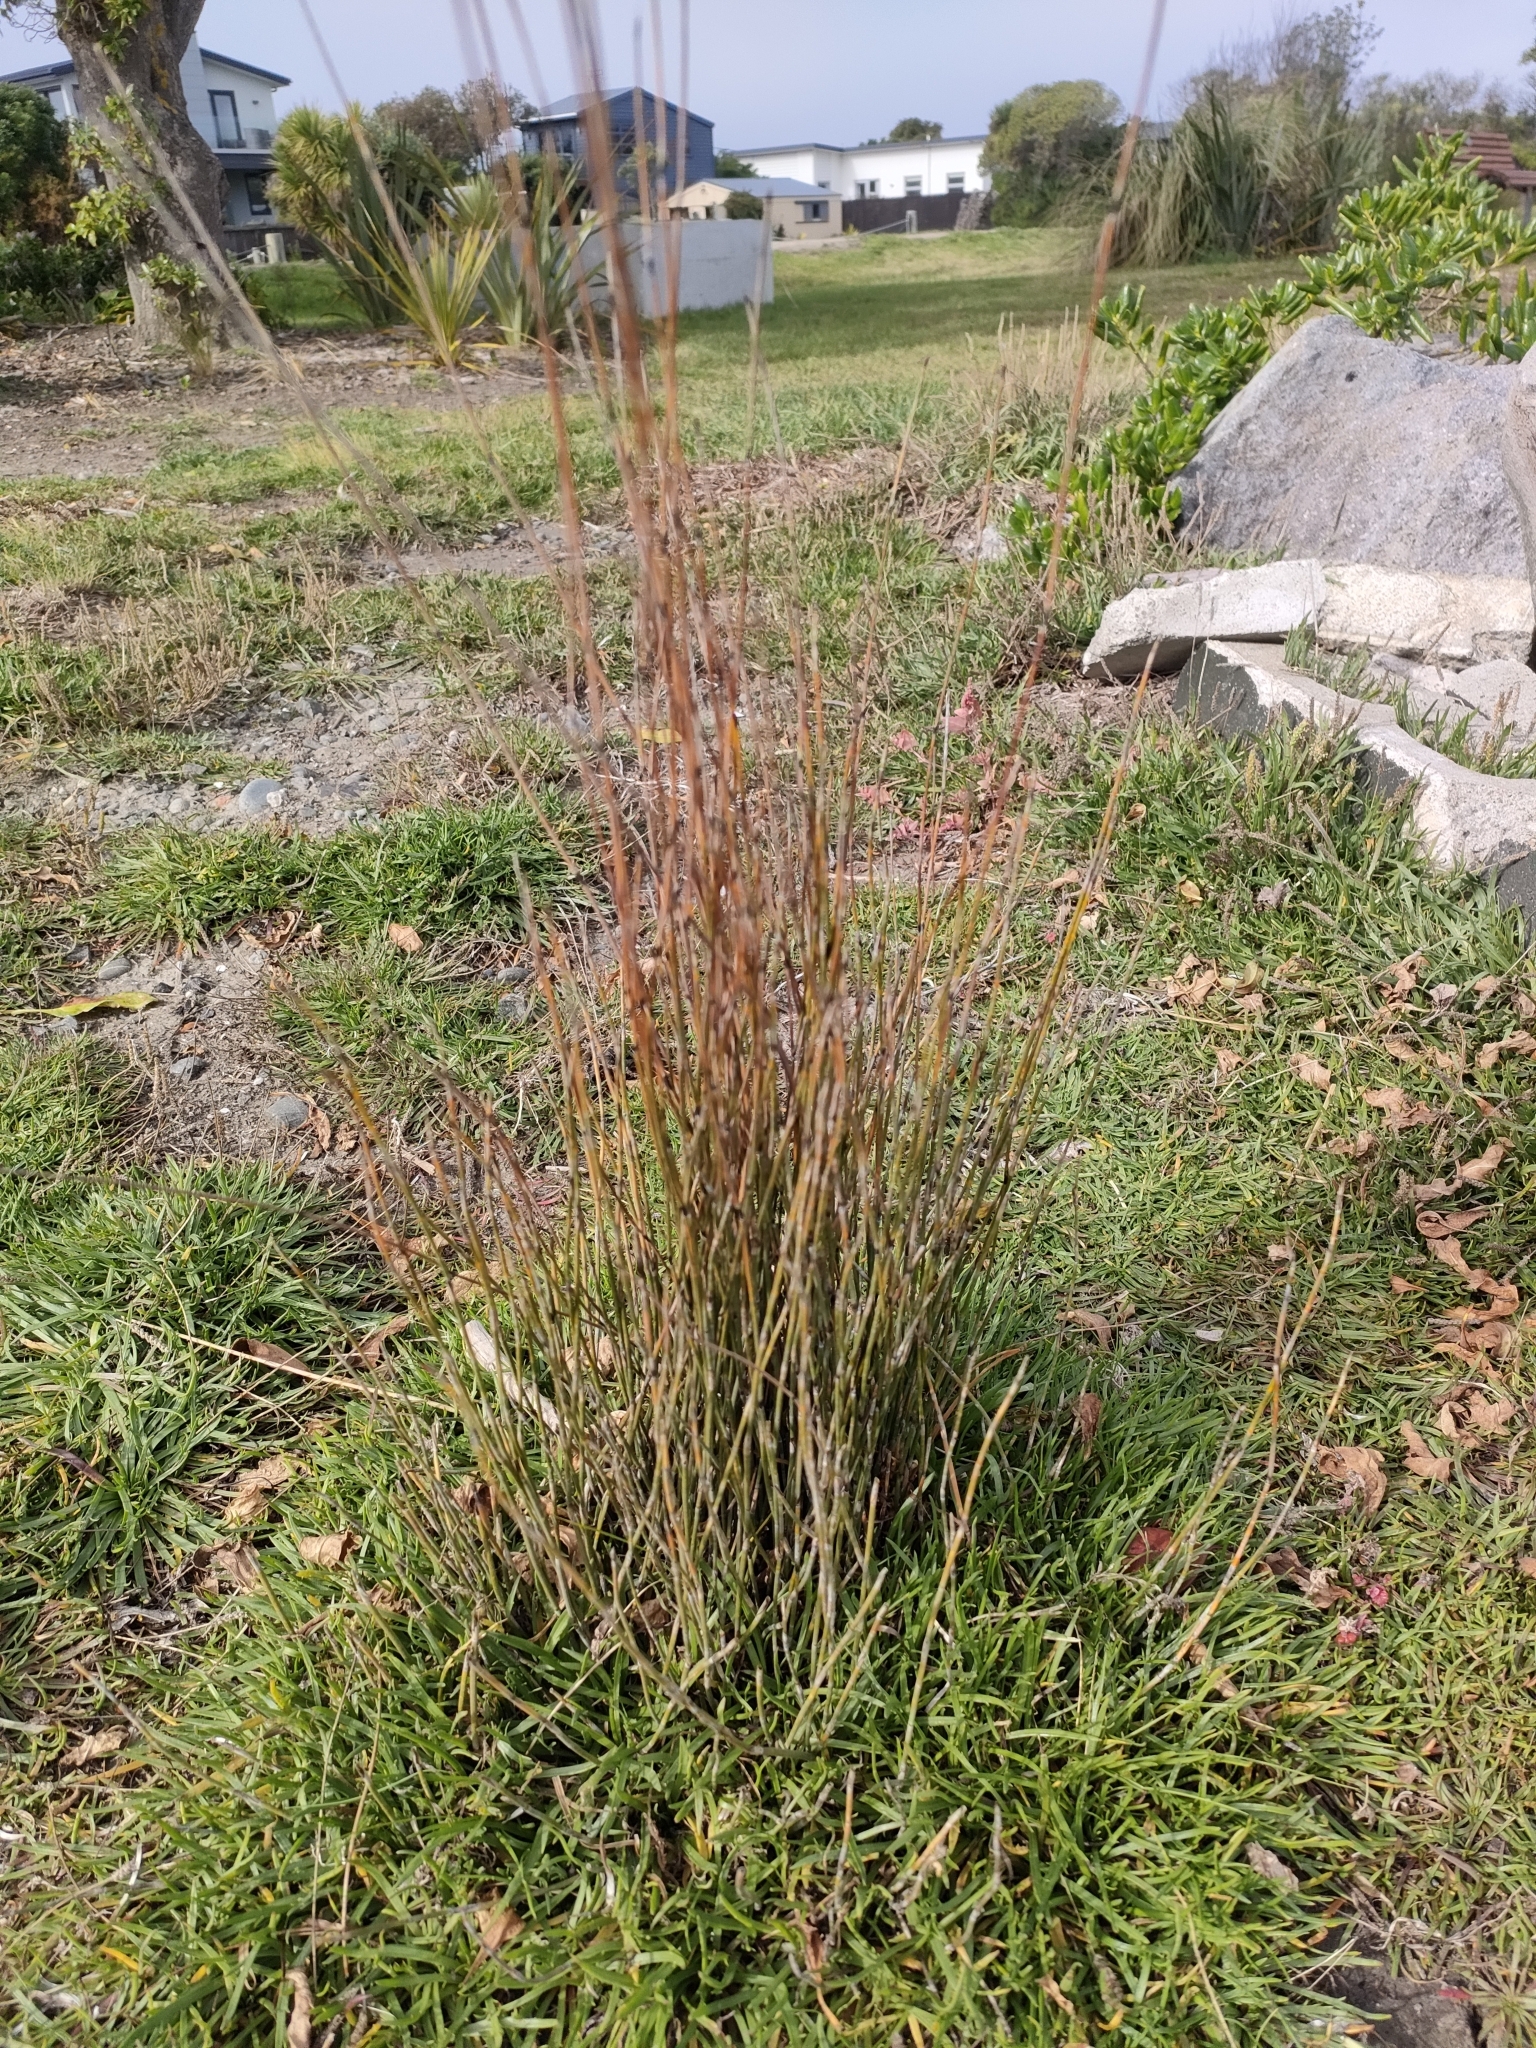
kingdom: Plantae
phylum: Tracheophyta
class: Liliopsida
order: Poales
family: Restionaceae
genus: Apodasmia
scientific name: Apodasmia similis
